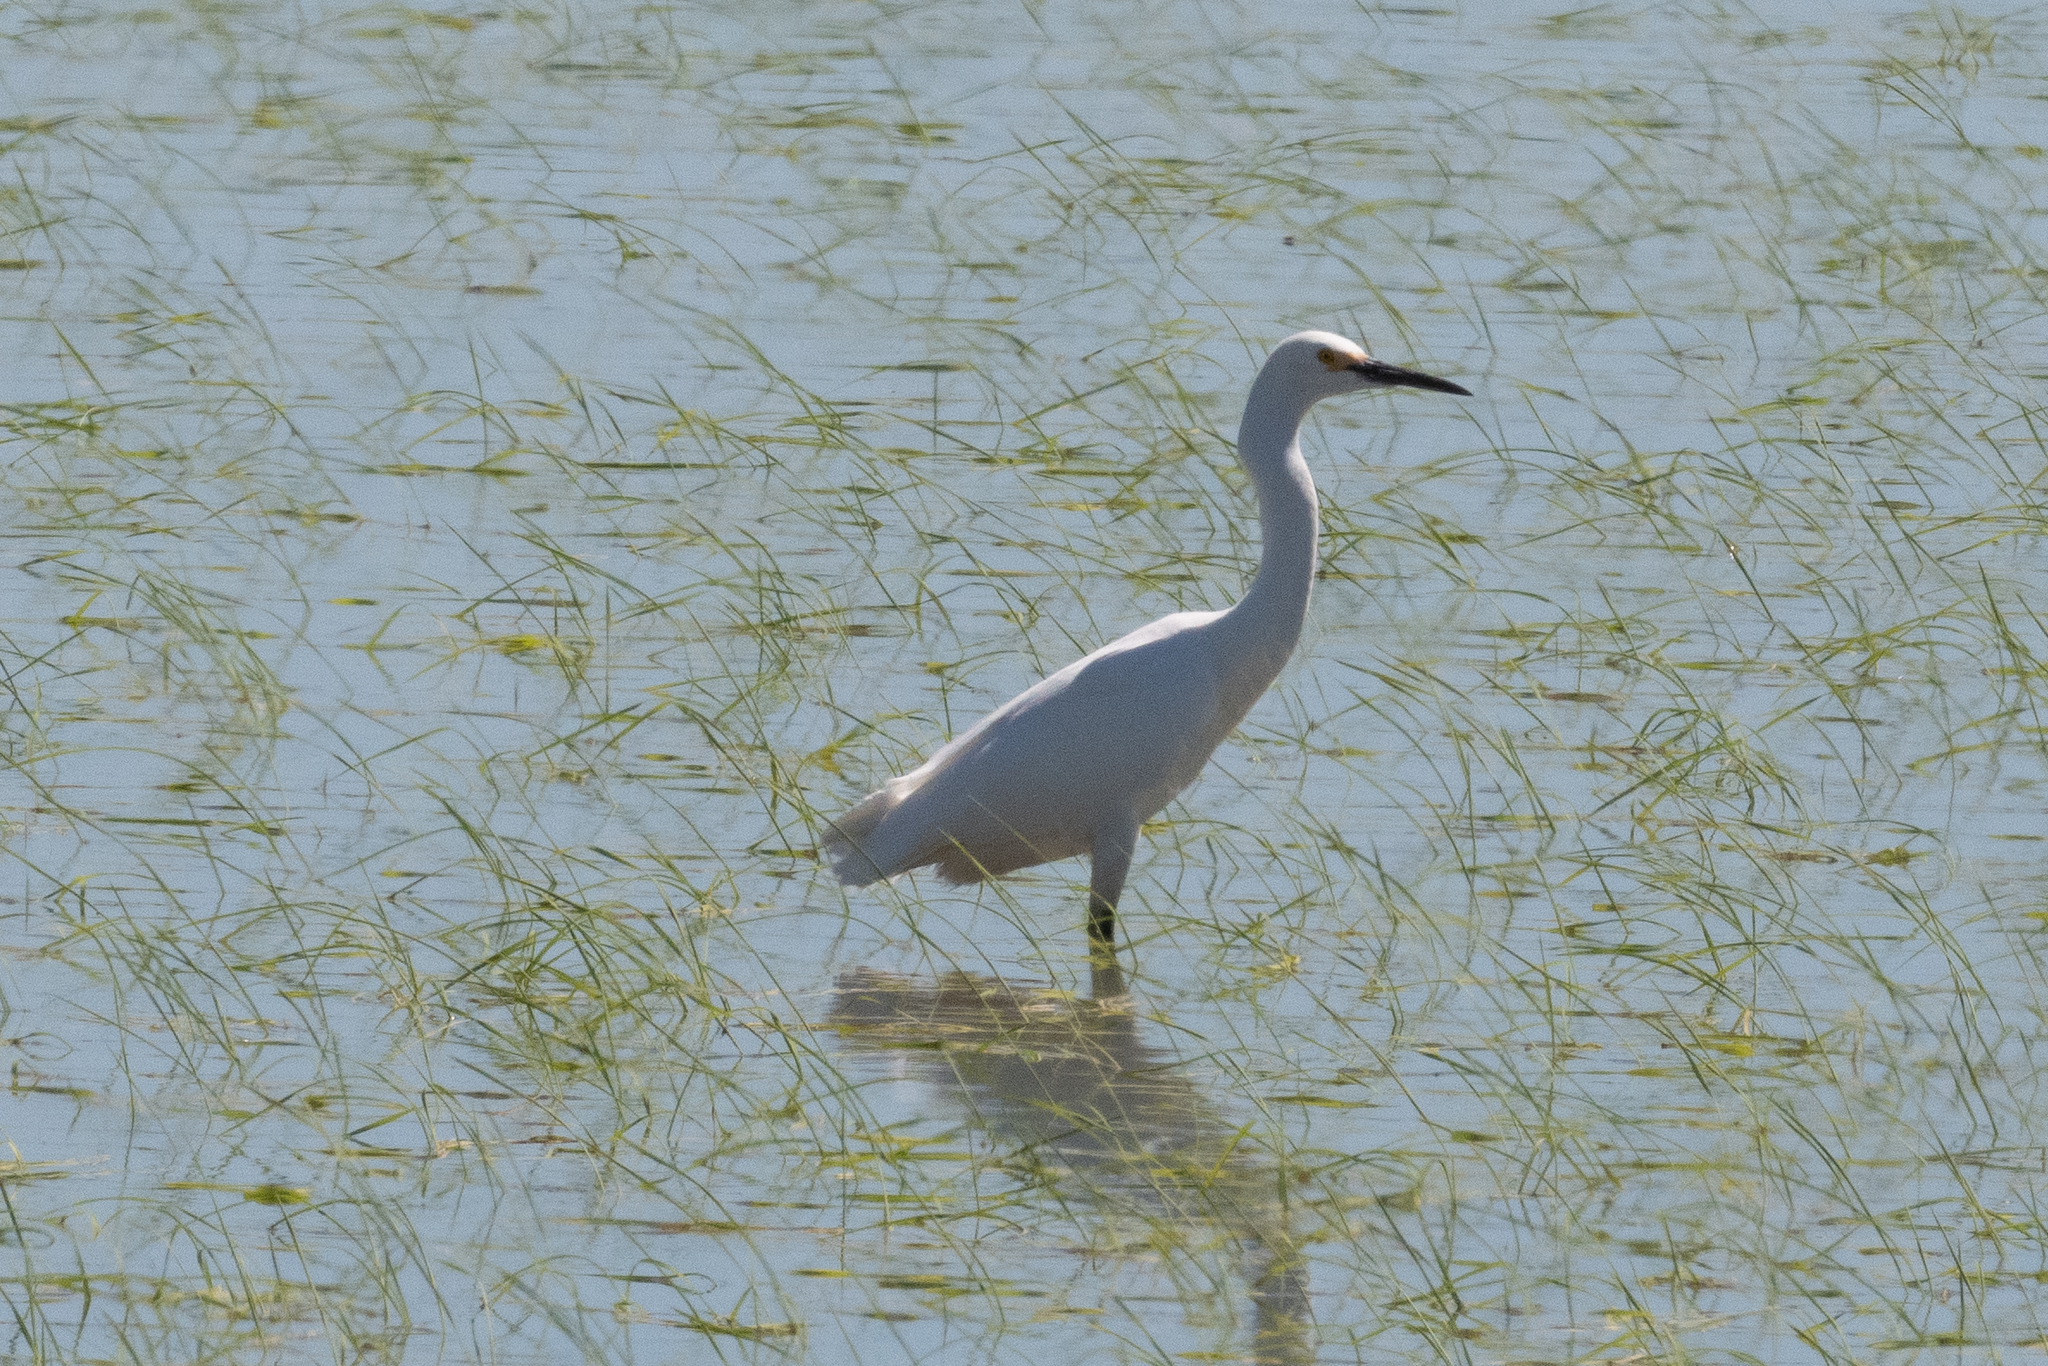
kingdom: Animalia
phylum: Chordata
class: Aves
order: Pelecaniformes
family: Ardeidae
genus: Egretta
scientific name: Egretta thula
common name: Snowy egret
